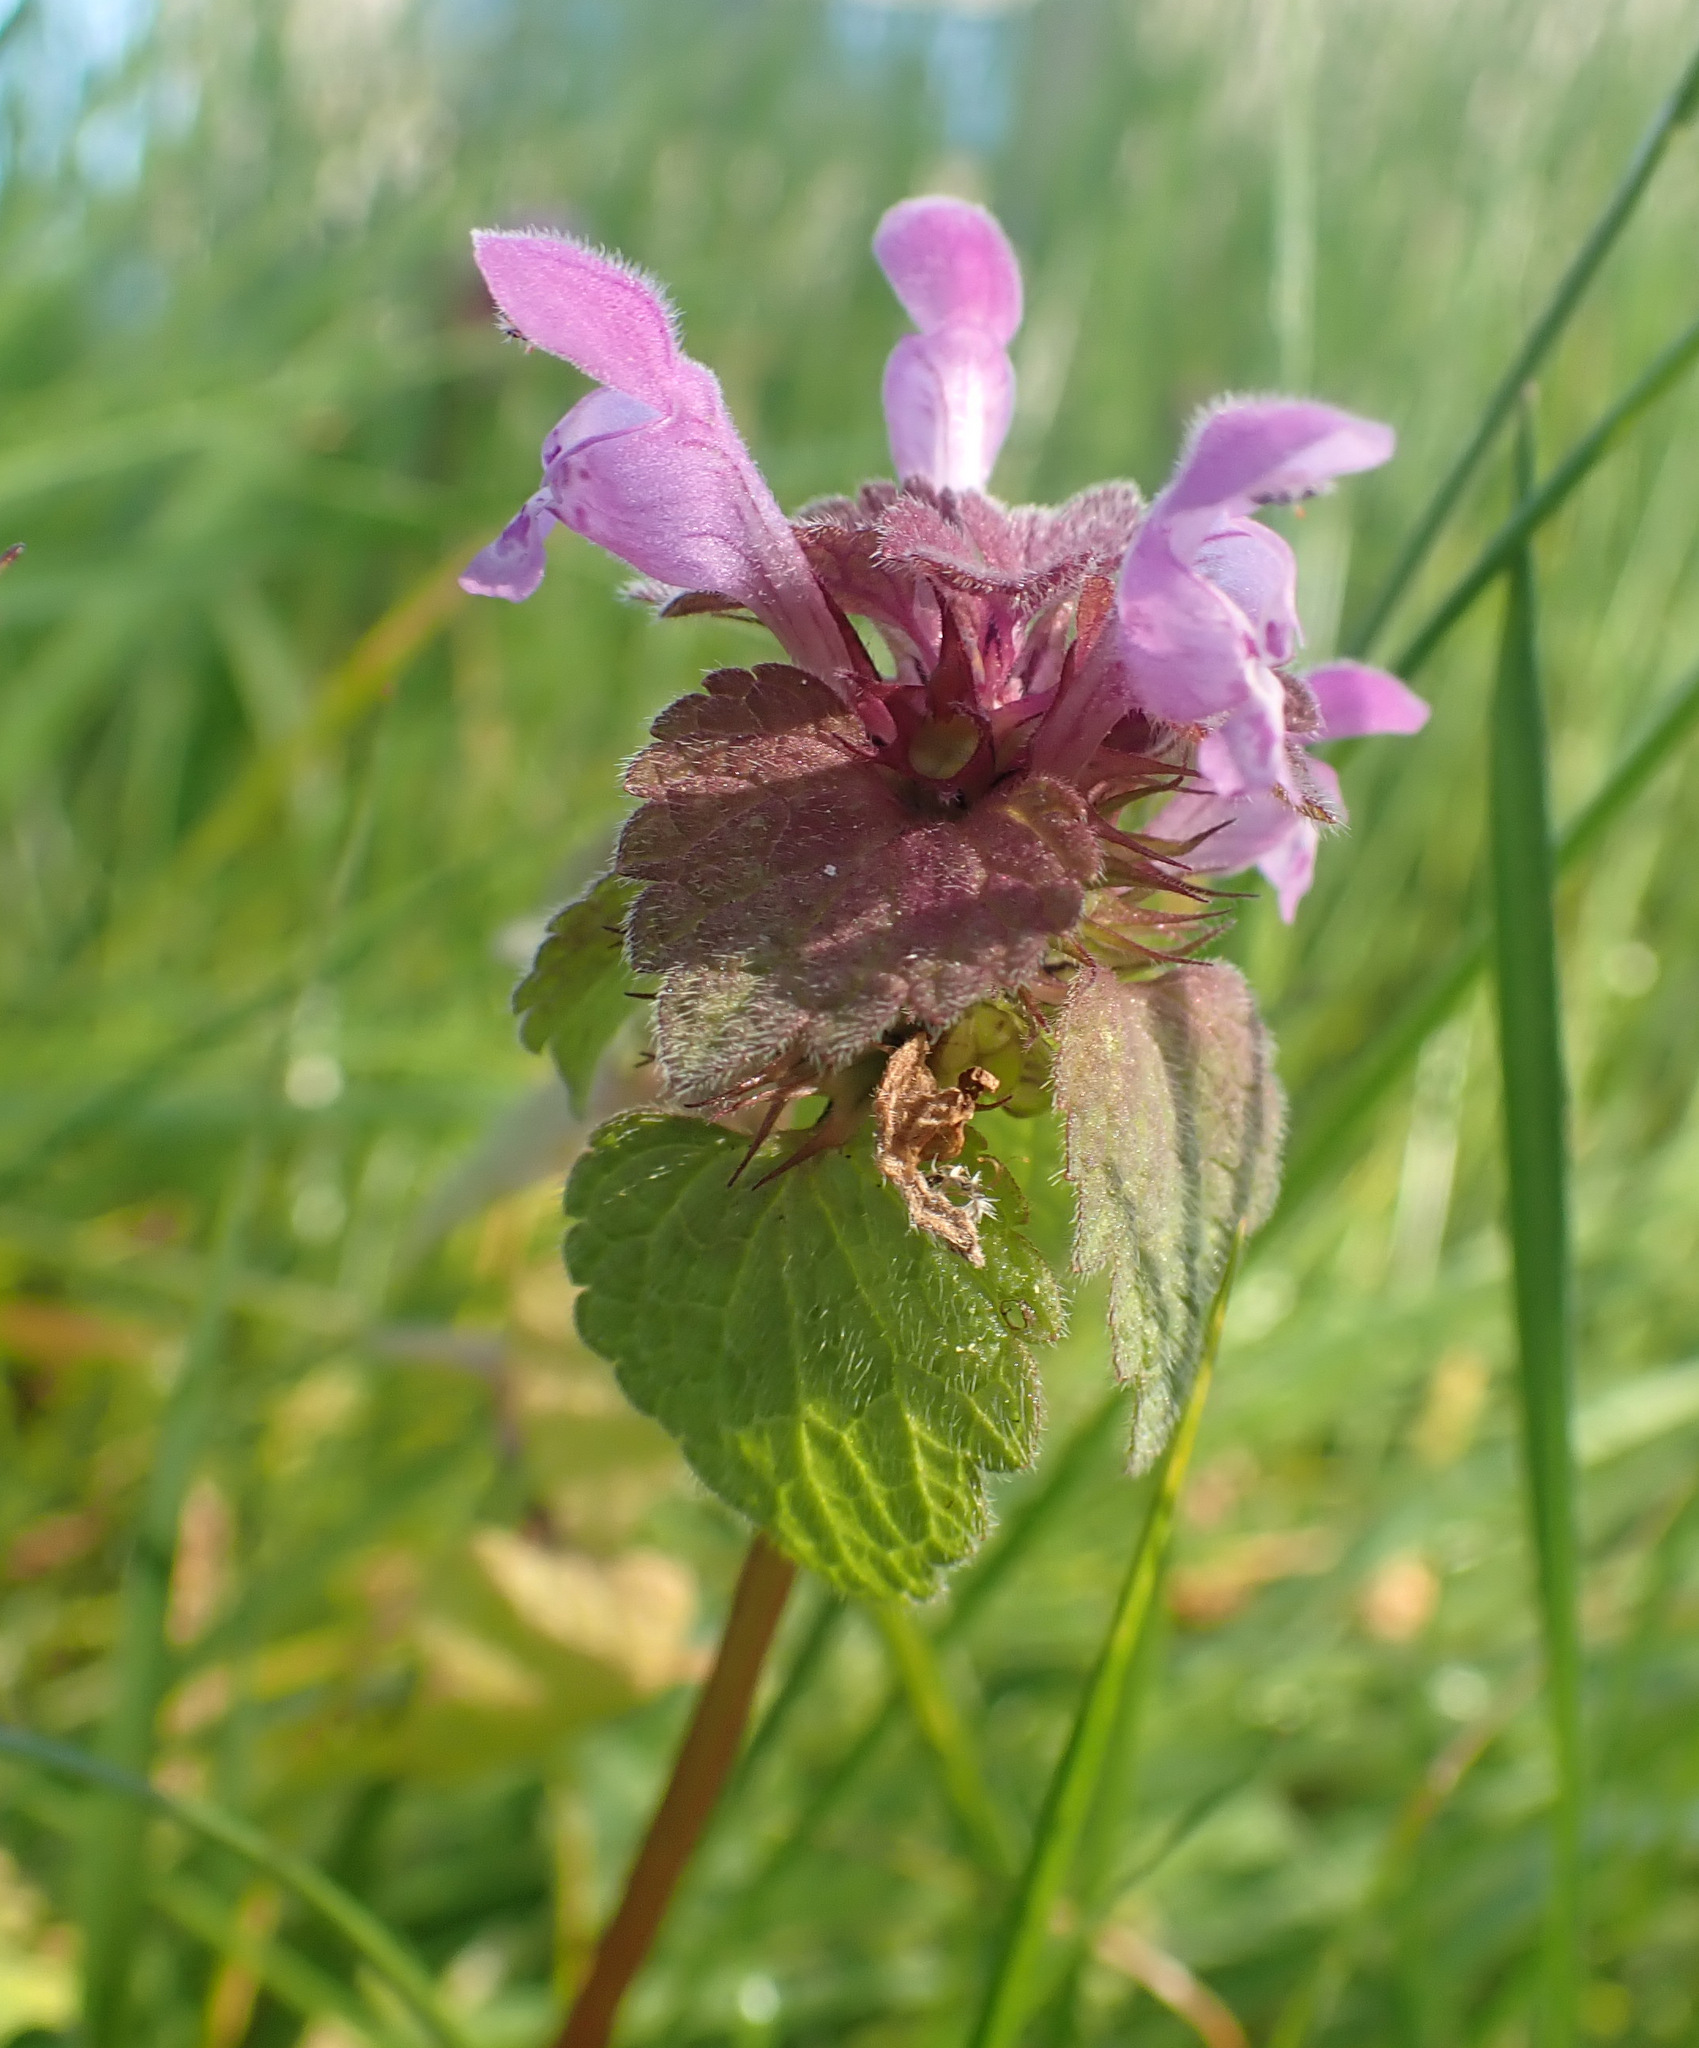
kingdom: Plantae
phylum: Tracheophyta
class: Magnoliopsida
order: Lamiales
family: Lamiaceae
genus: Lamium
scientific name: Lamium purpureum
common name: Red dead-nettle
